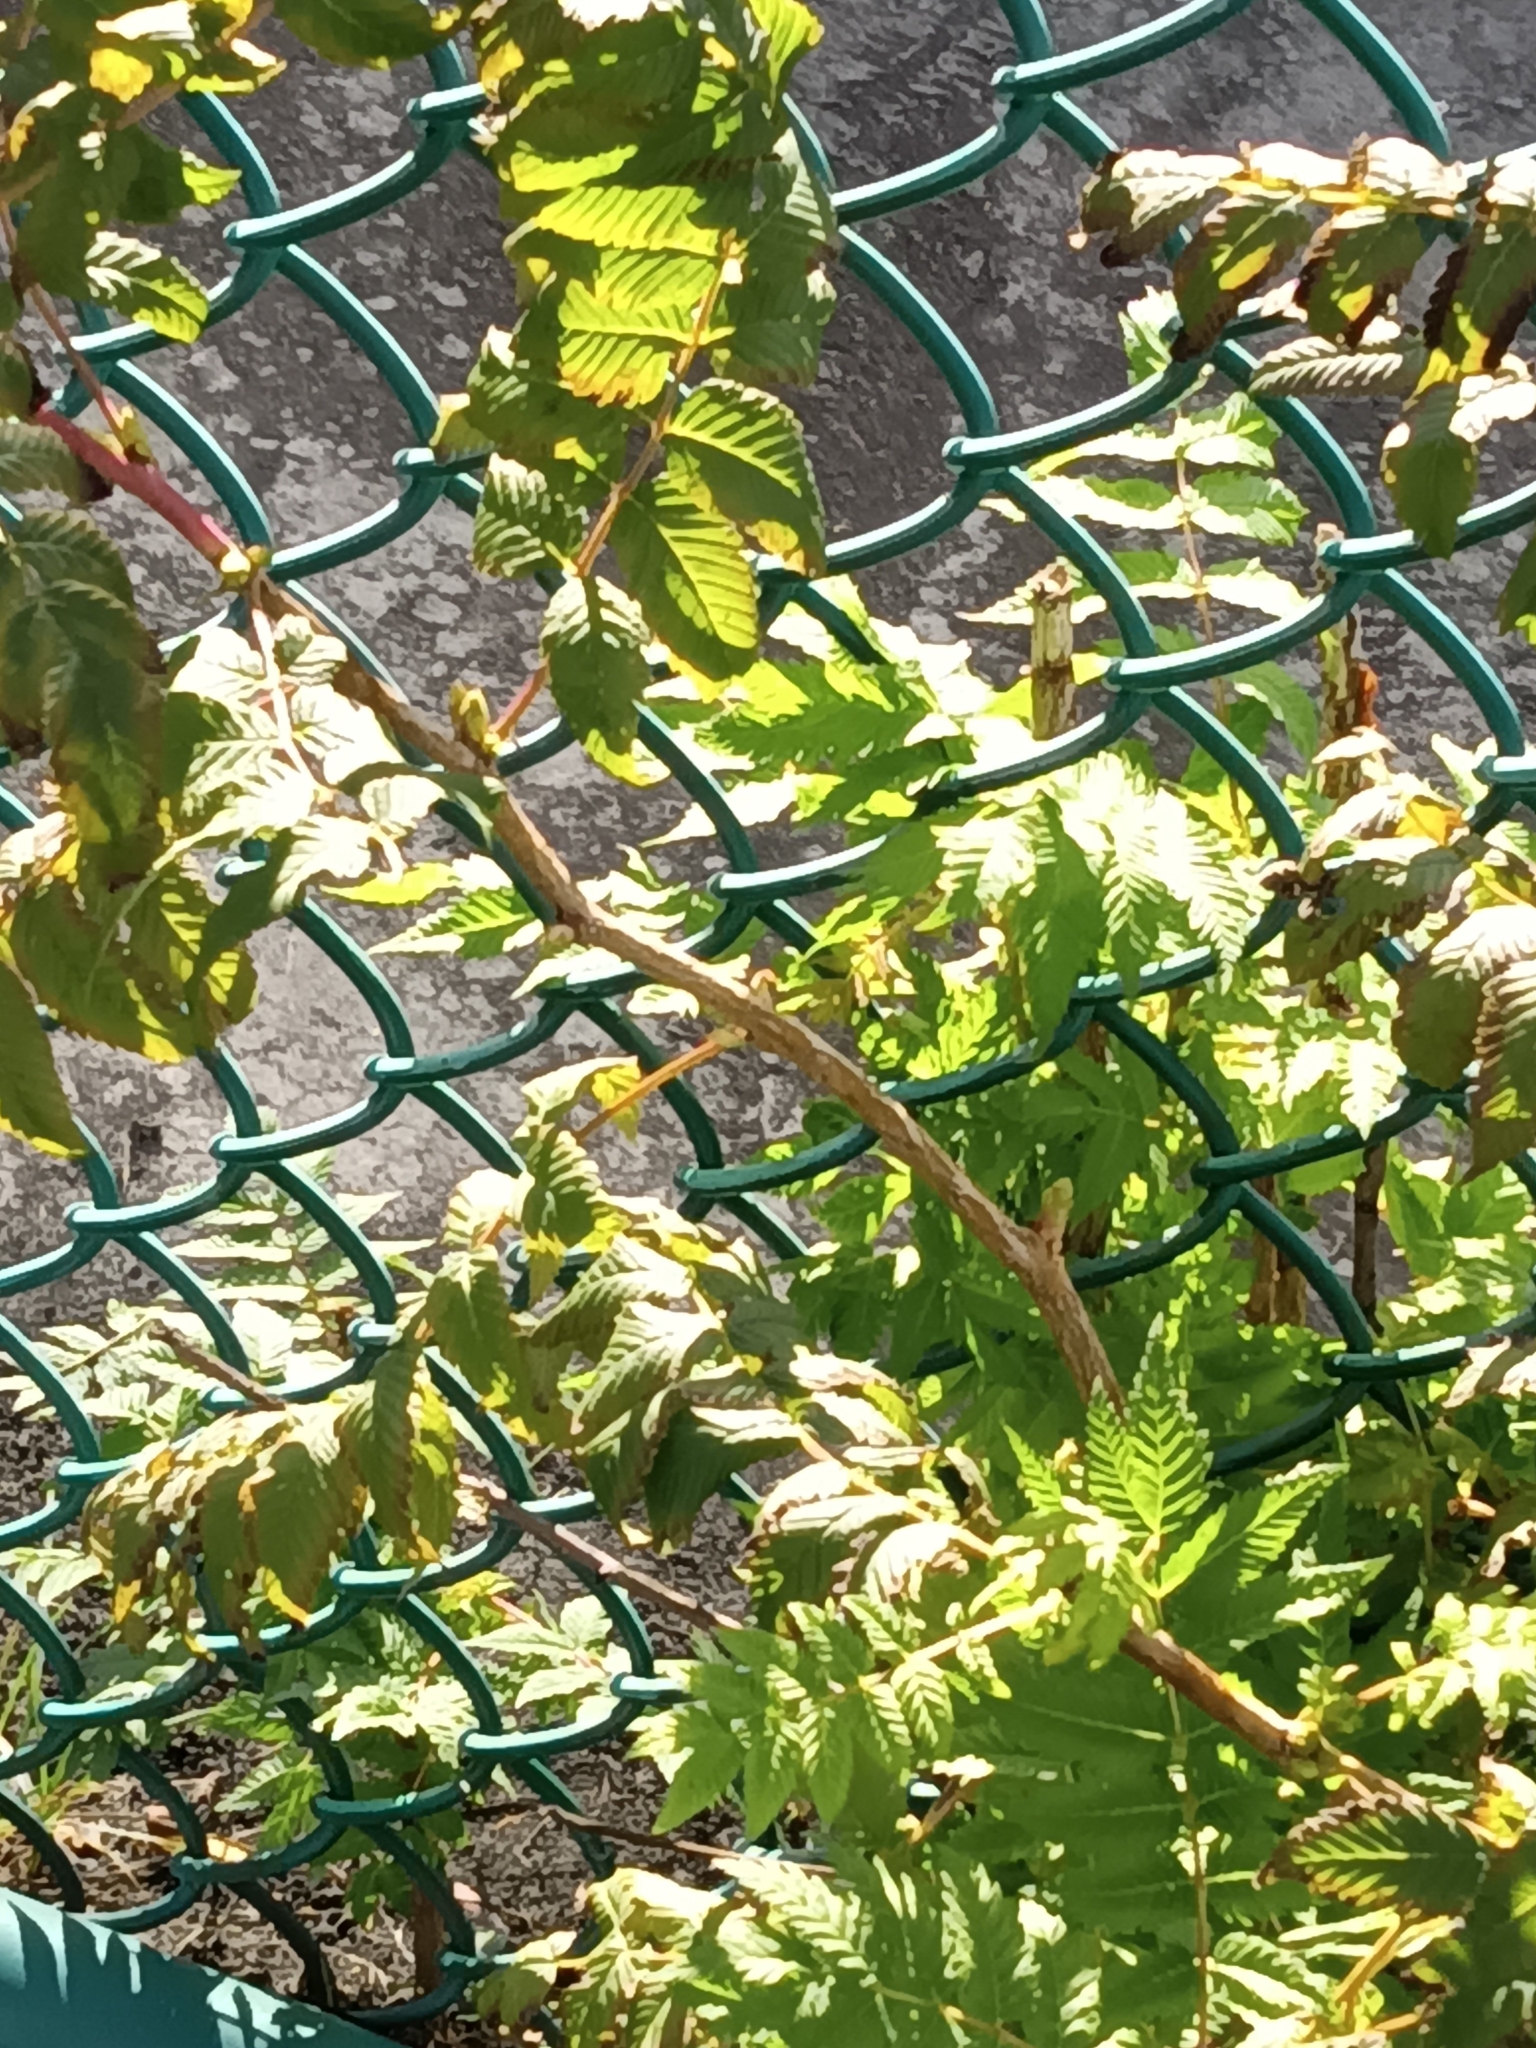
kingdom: Plantae
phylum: Tracheophyta
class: Magnoliopsida
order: Rosales
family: Rosaceae
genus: Sorbaria
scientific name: Sorbaria sorbifolia
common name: False spiraea
